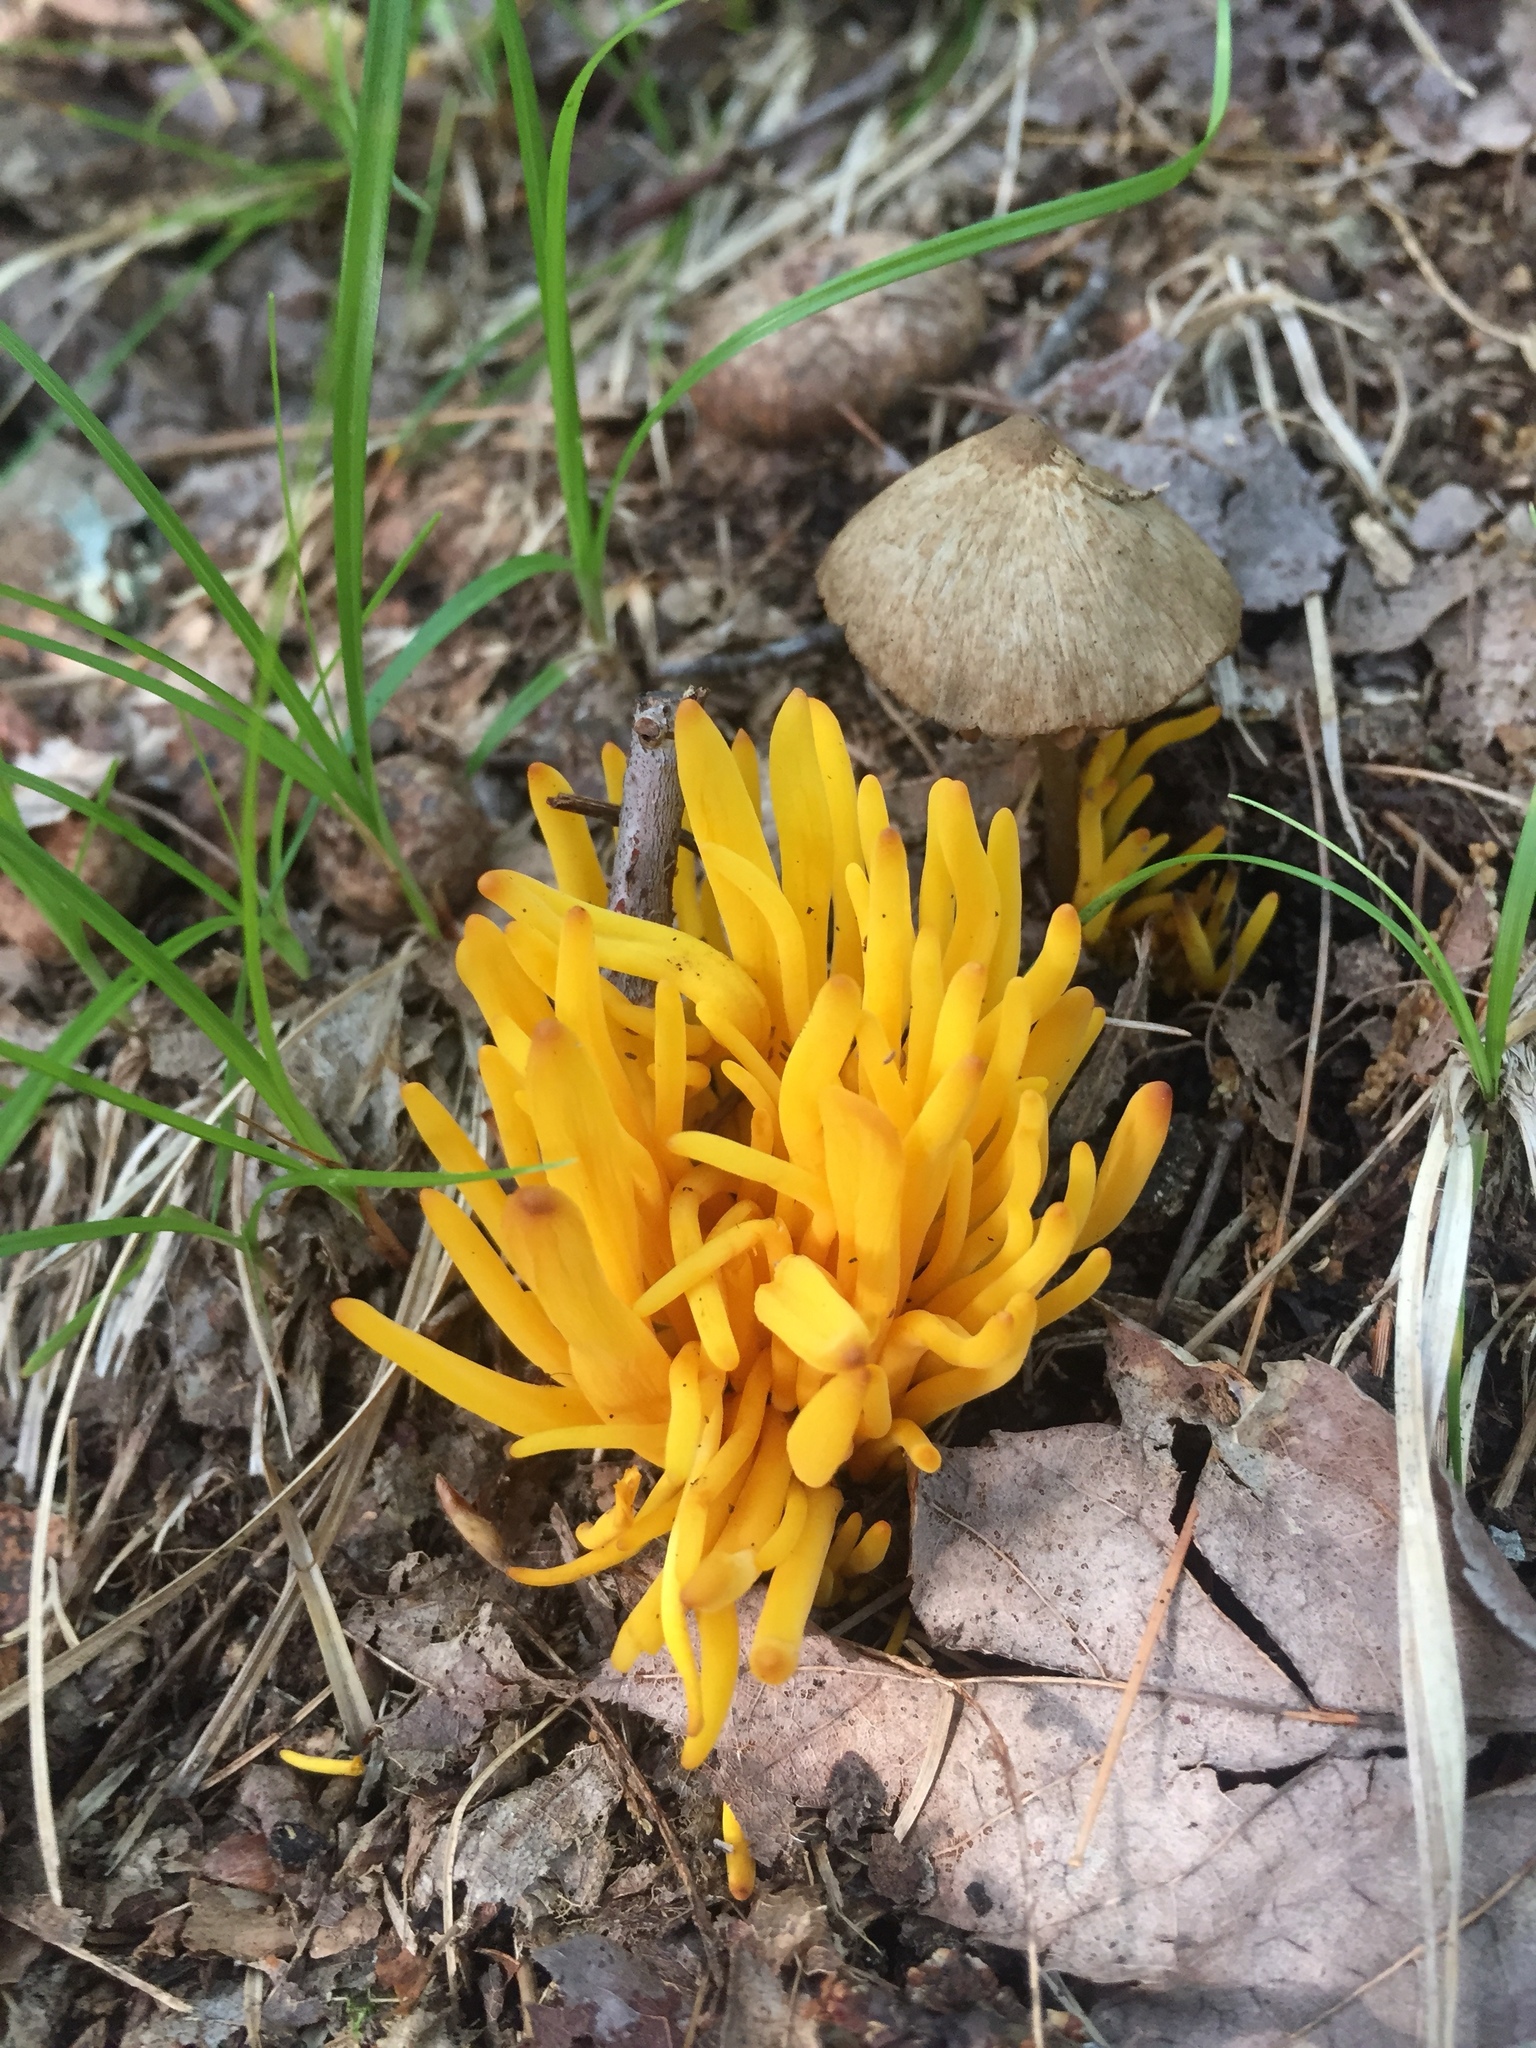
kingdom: Fungi
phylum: Basidiomycota
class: Agaricomycetes
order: Agaricales
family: Clavariaceae
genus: Clavulinopsis
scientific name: Clavulinopsis fusiformis
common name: Golden spindles
